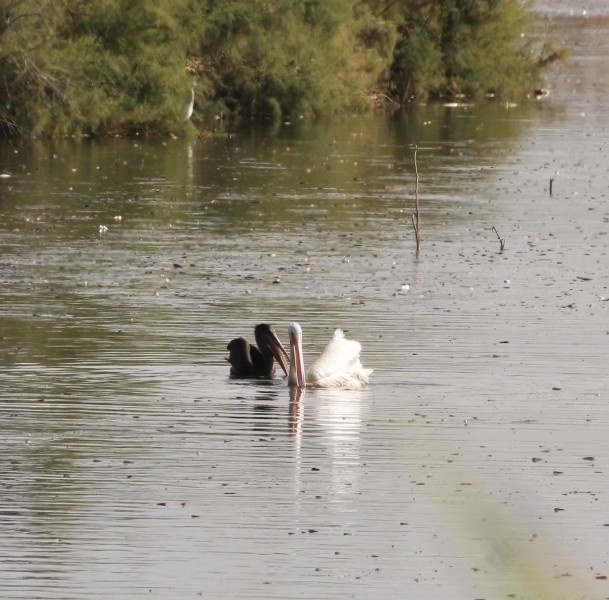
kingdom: Animalia
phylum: Chordata
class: Aves
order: Pelecaniformes
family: Pelecanidae
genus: Pelecanus
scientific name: Pelecanus erythrorhynchos
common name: American white pelican
